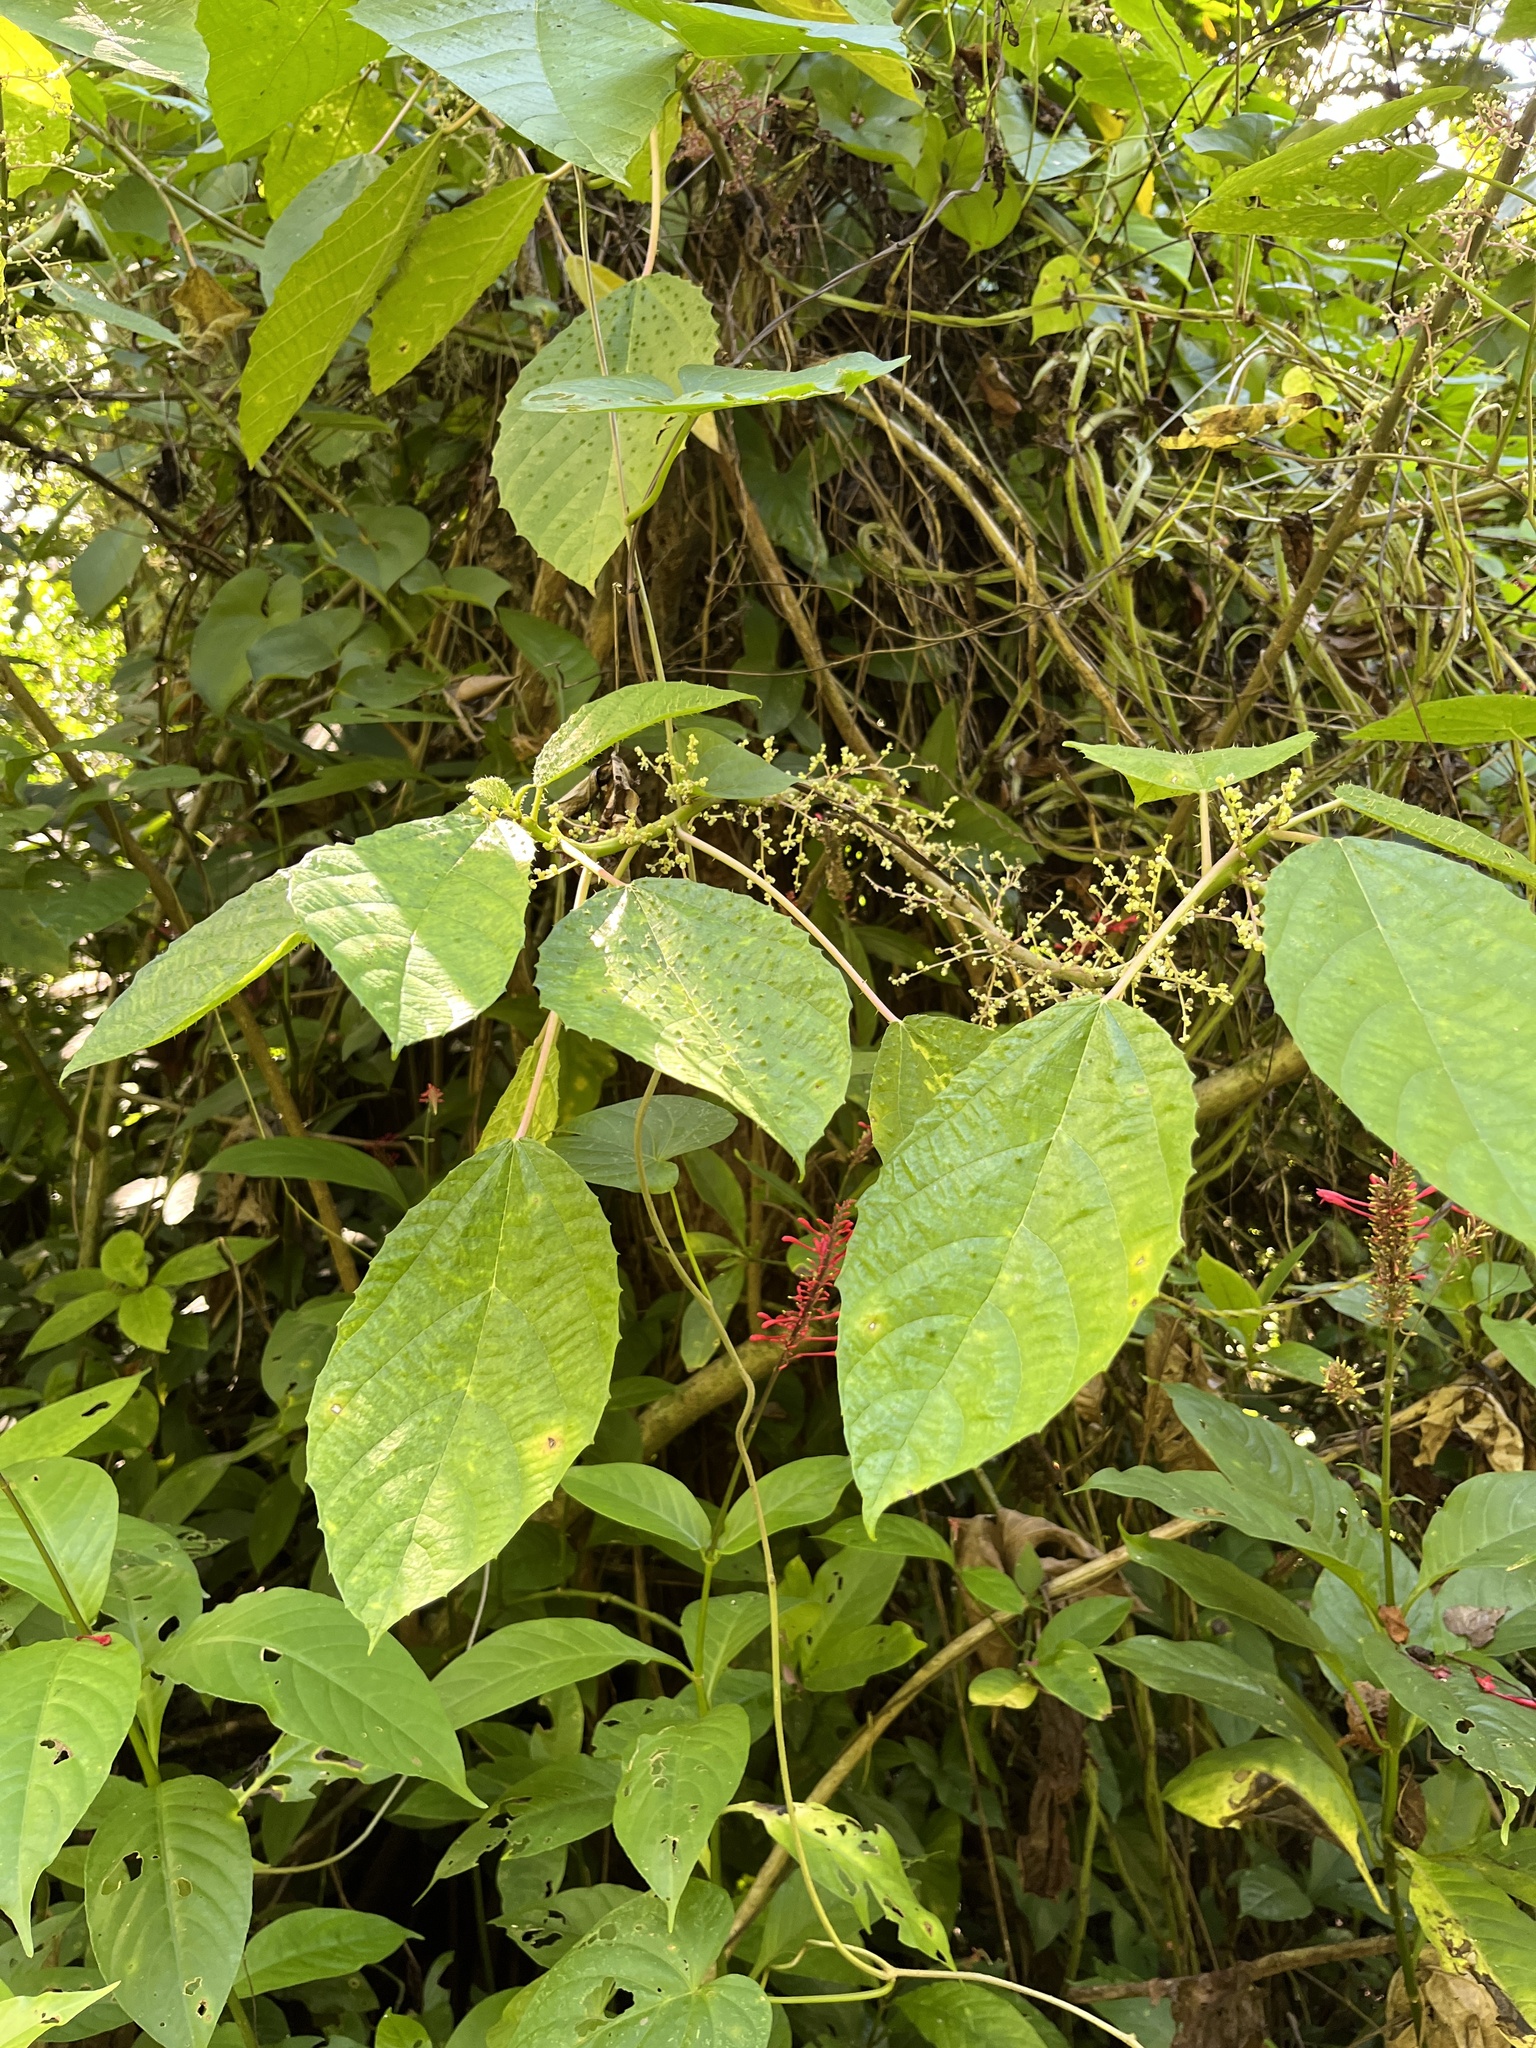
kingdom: Plantae
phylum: Tracheophyta
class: Magnoliopsida
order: Rosales
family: Urticaceae
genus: Urera
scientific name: Urera baccifera
